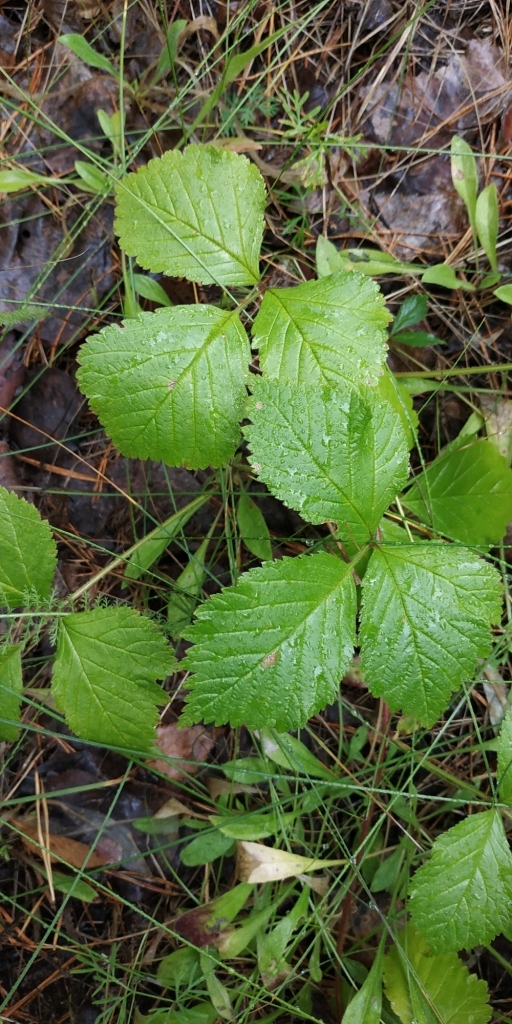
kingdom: Plantae
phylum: Tracheophyta
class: Magnoliopsida
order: Rosales
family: Rosaceae
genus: Rubus
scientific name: Rubus saxatilis
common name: Stone bramble
